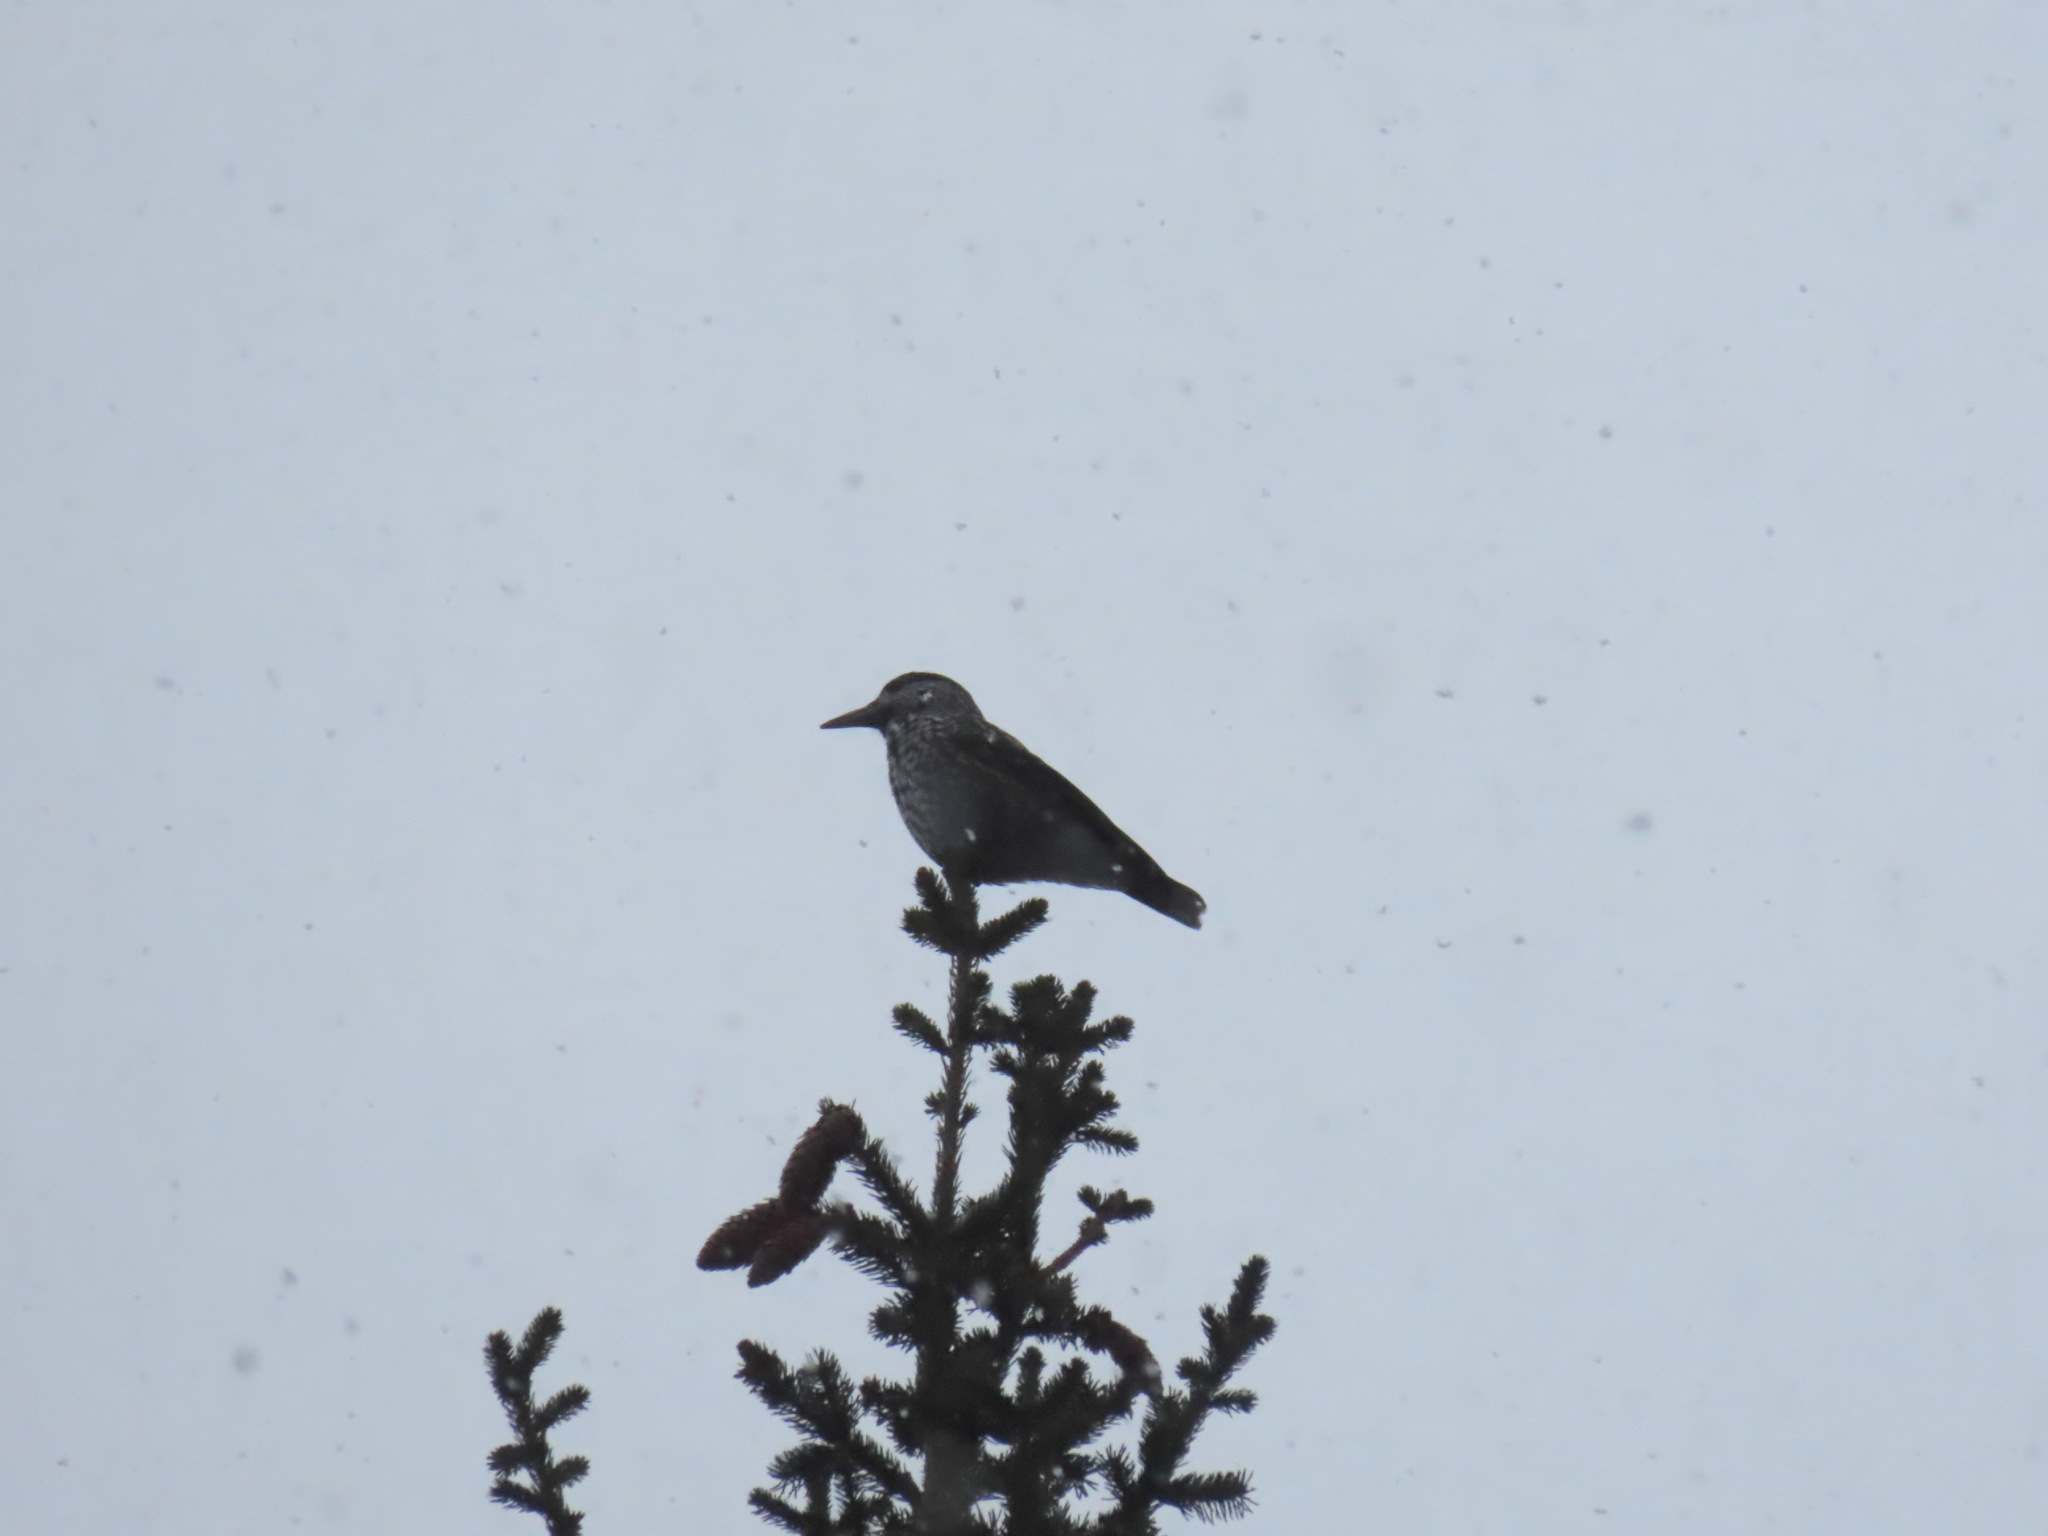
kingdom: Animalia
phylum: Chordata
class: Aves
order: Passeriformes
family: Corvidae
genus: Nucifraga
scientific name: Nucifraga caryocatactes
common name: Spotted nutcracker
